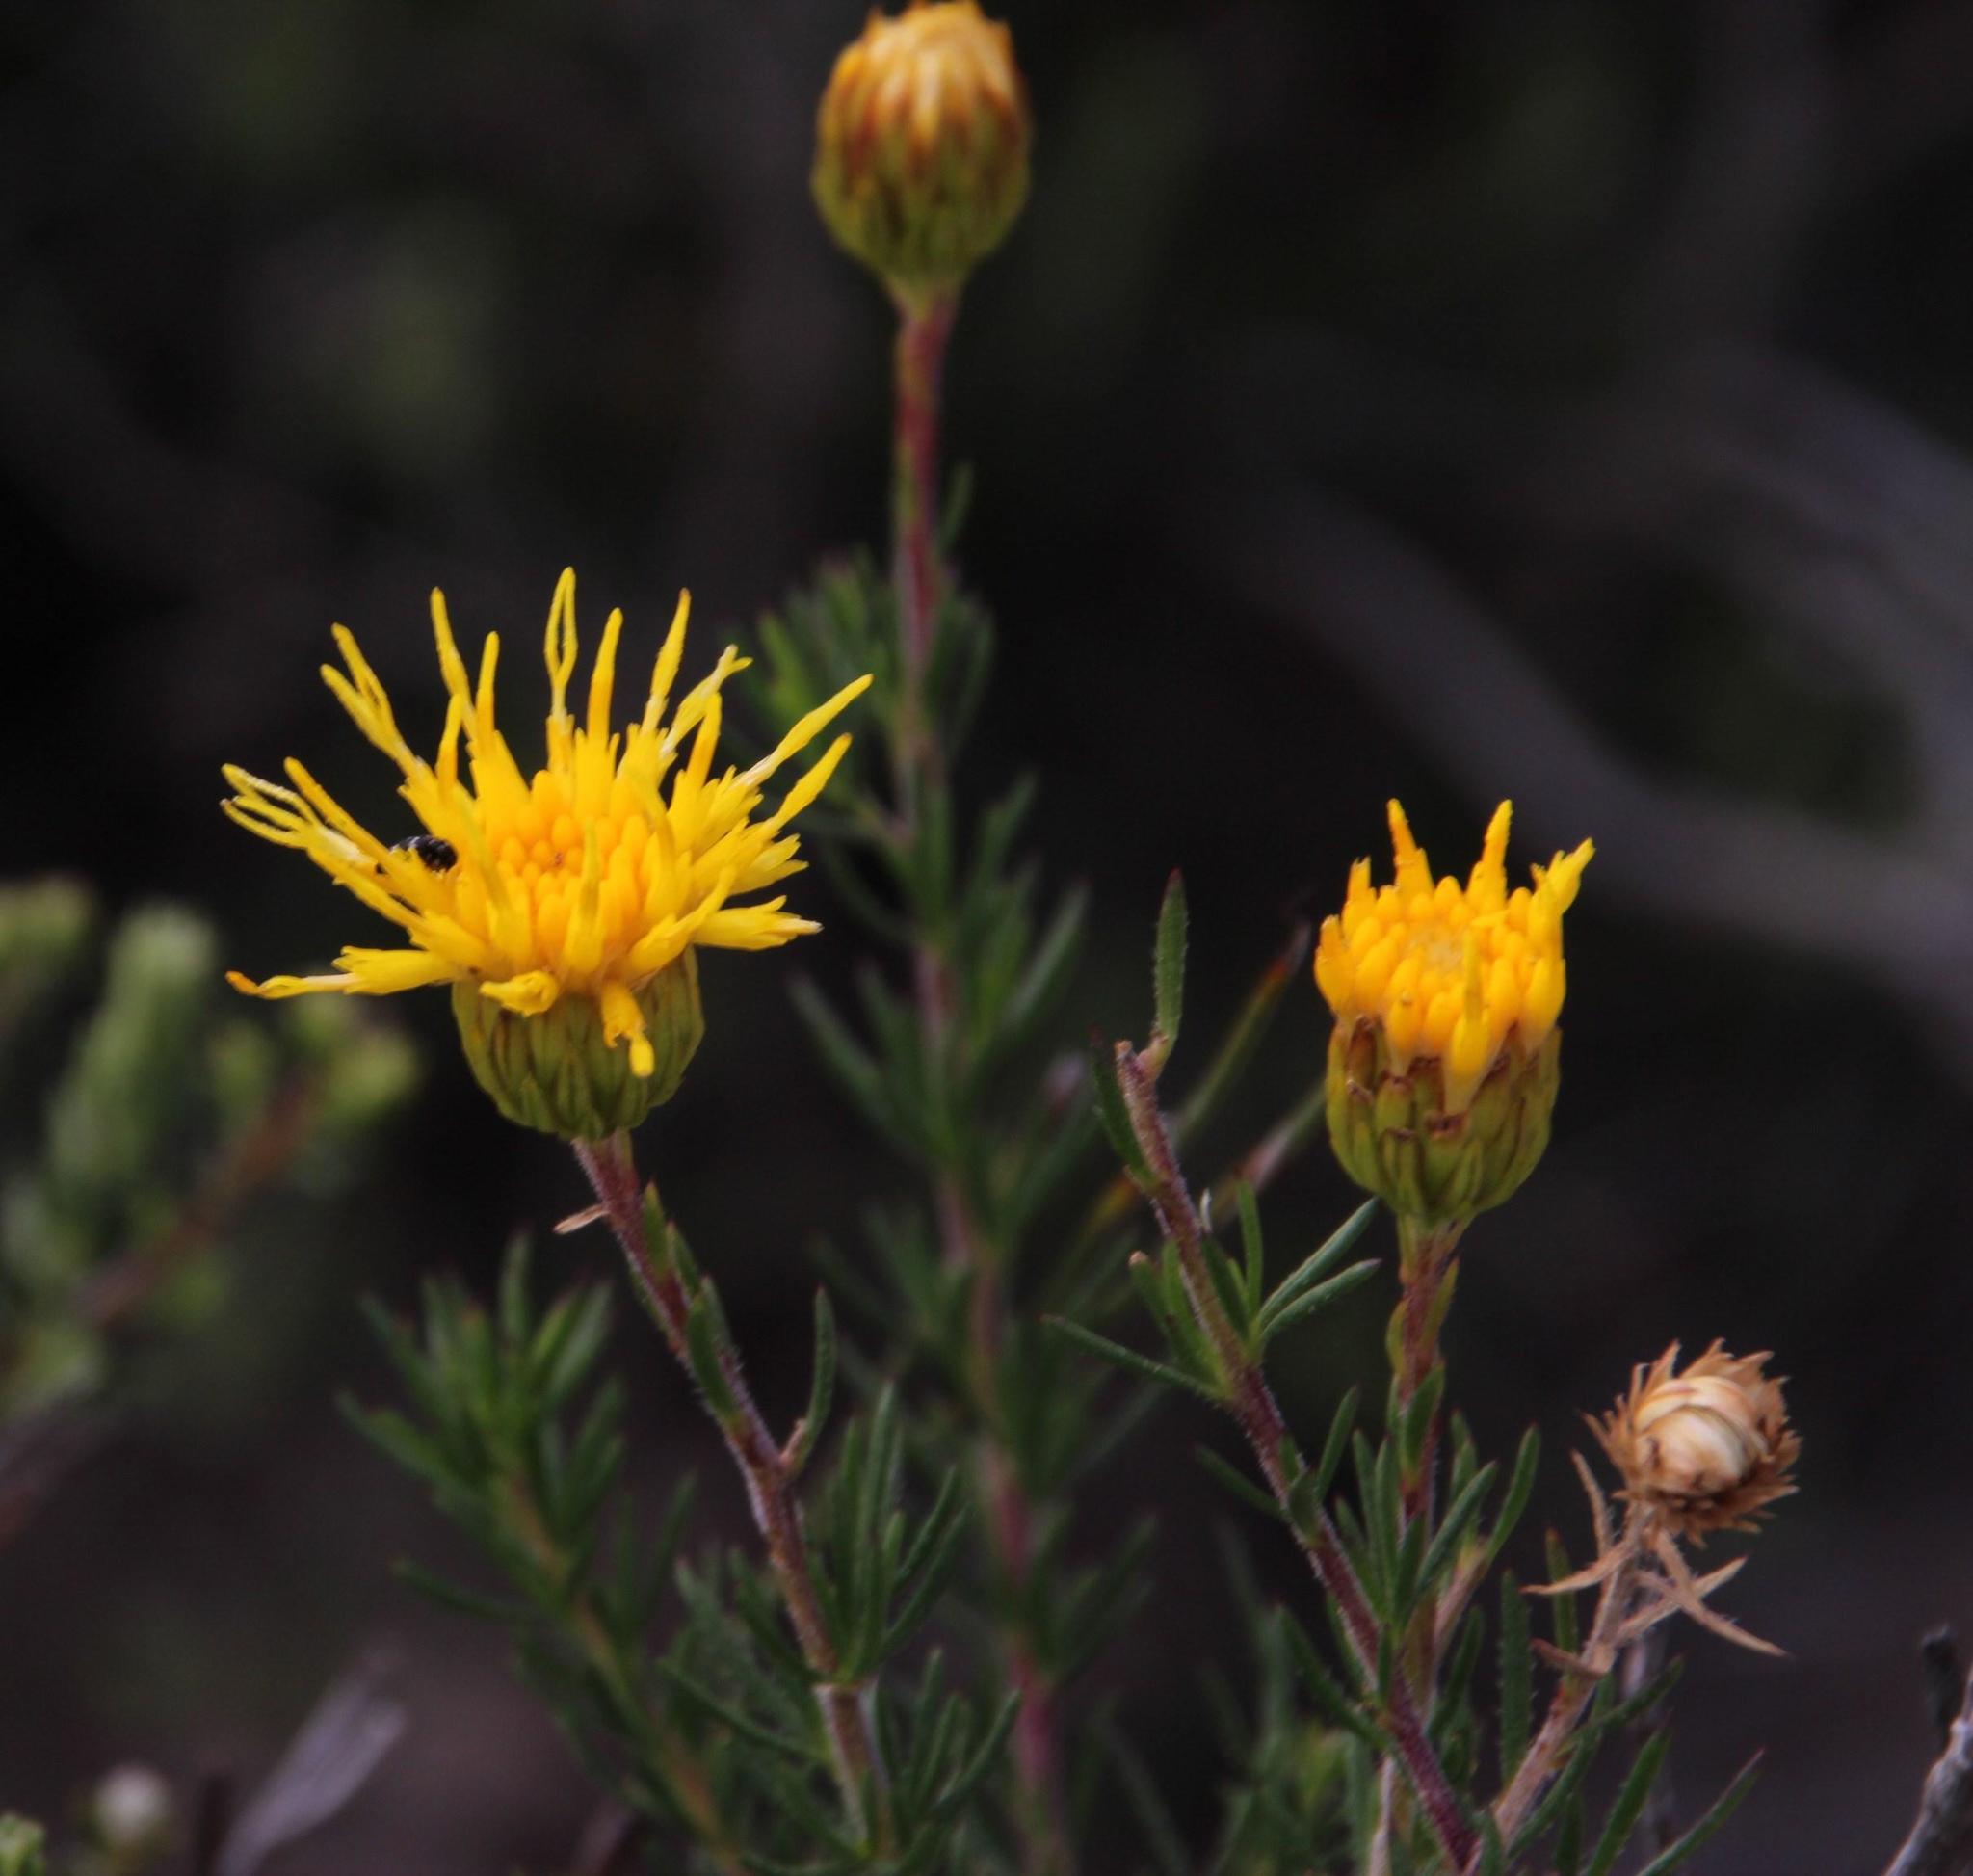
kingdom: Plantae
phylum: Tracheophyta
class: Magnoliopsida
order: Asterales
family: Asteraceae
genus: Pteronia
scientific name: Pteronia camphorata
